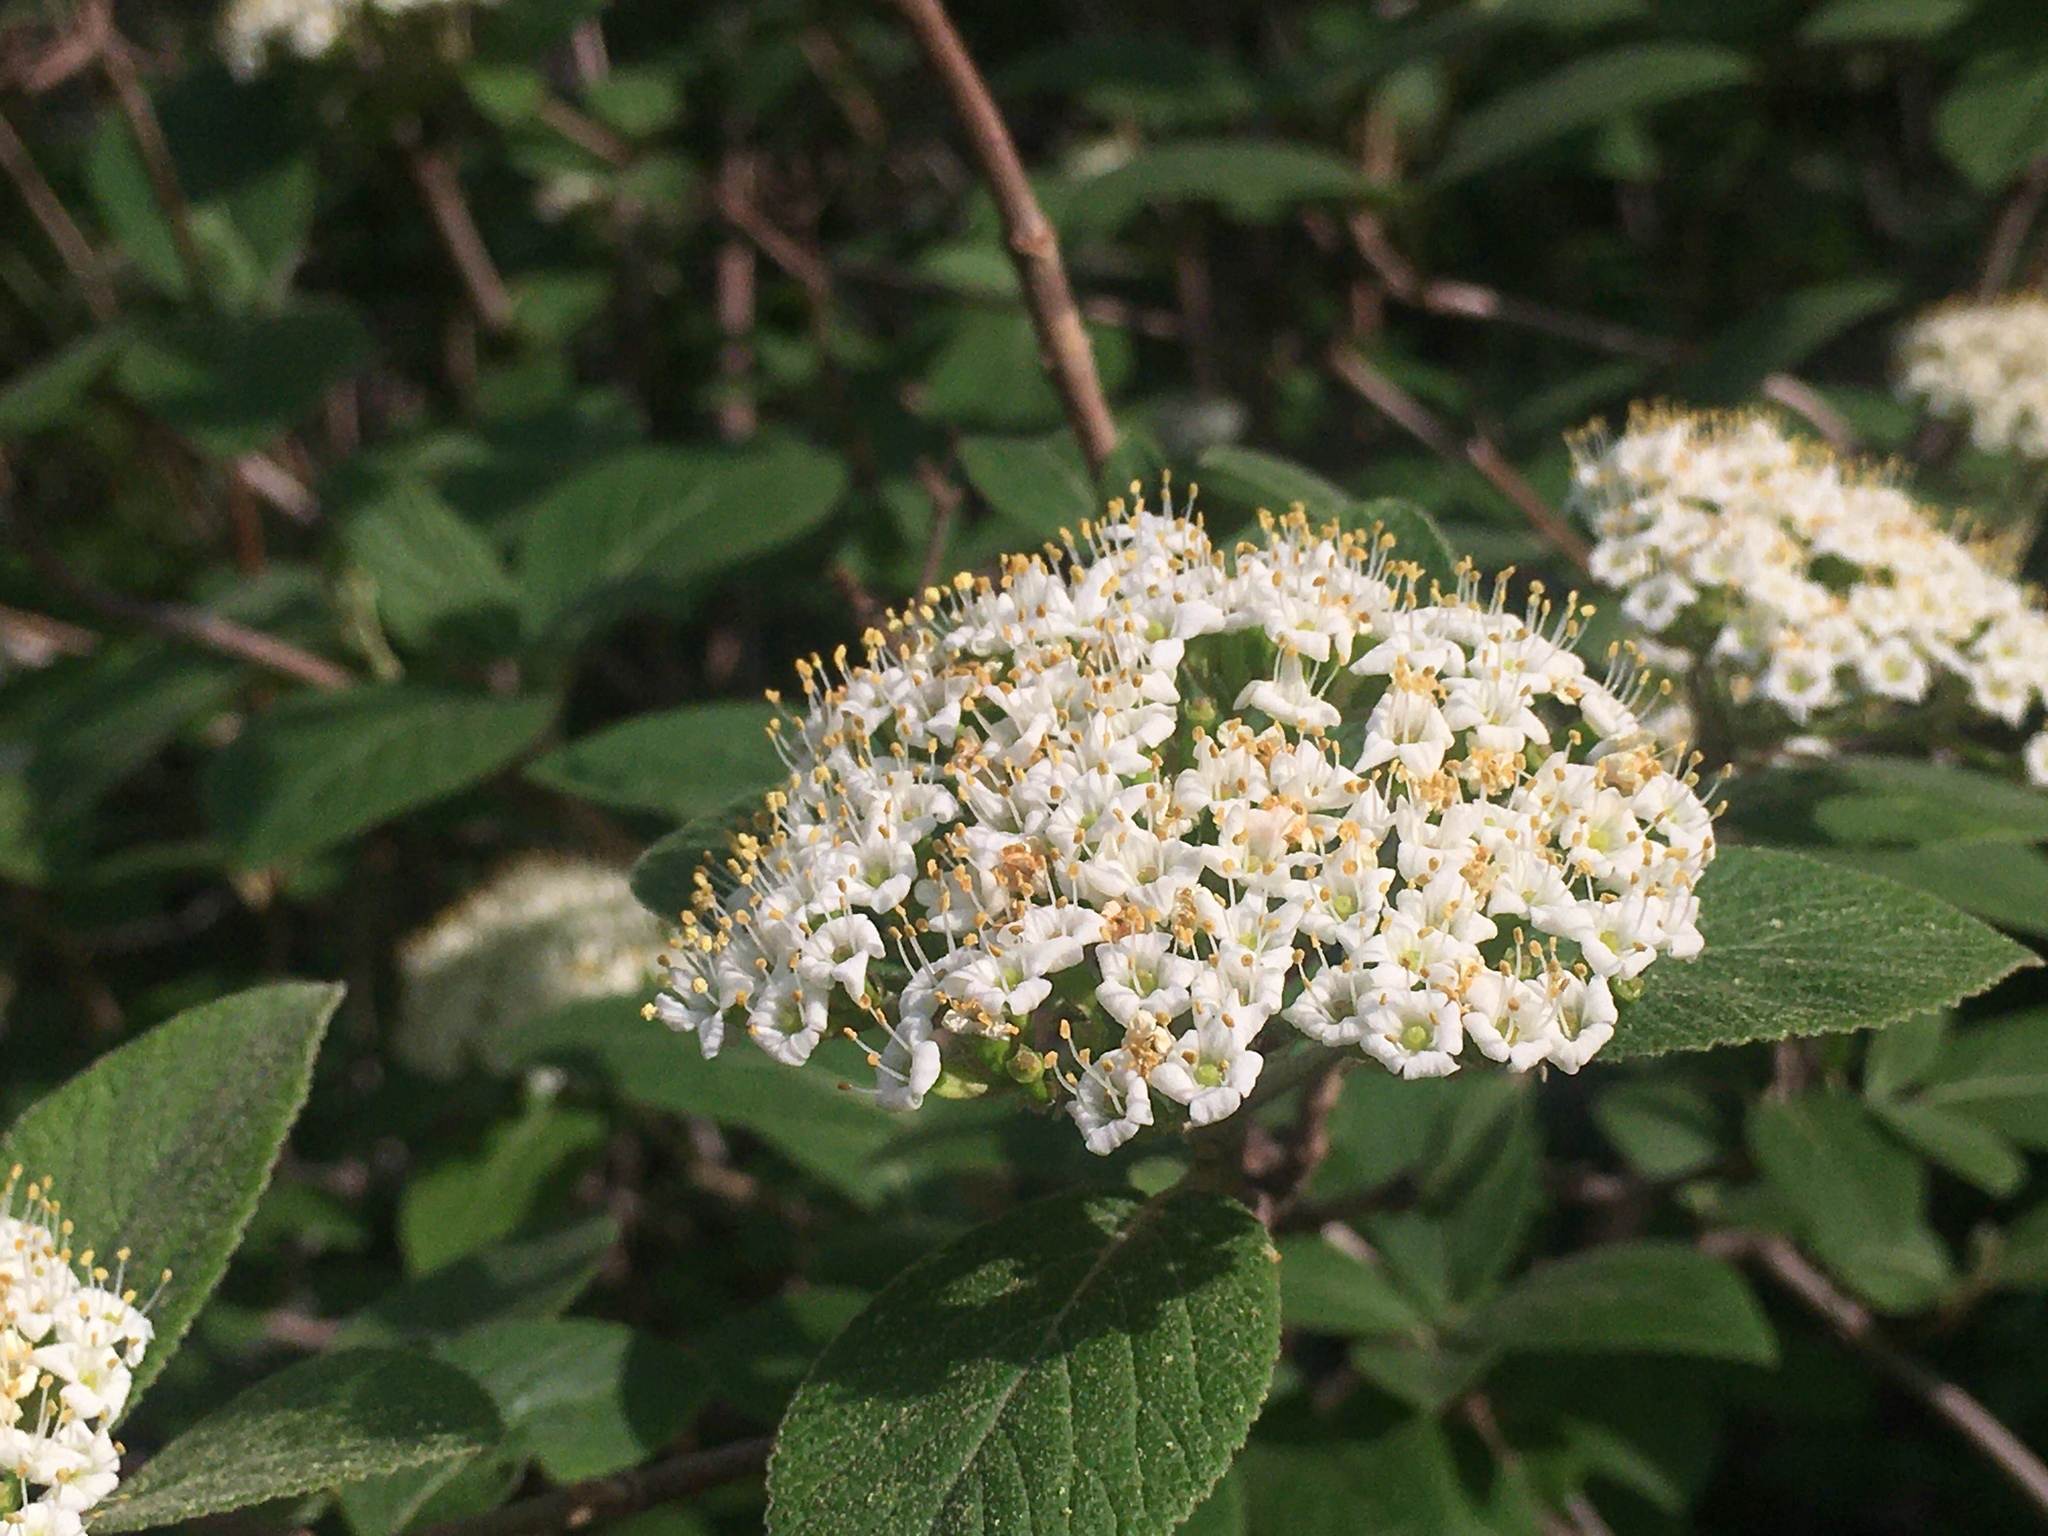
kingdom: Plantae
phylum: Tracheophyta
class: Magnoliopsida
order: Dipsacales
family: Viburnaceae
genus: Viburnum
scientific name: Viburnum lantana
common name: Wayfaring tree
